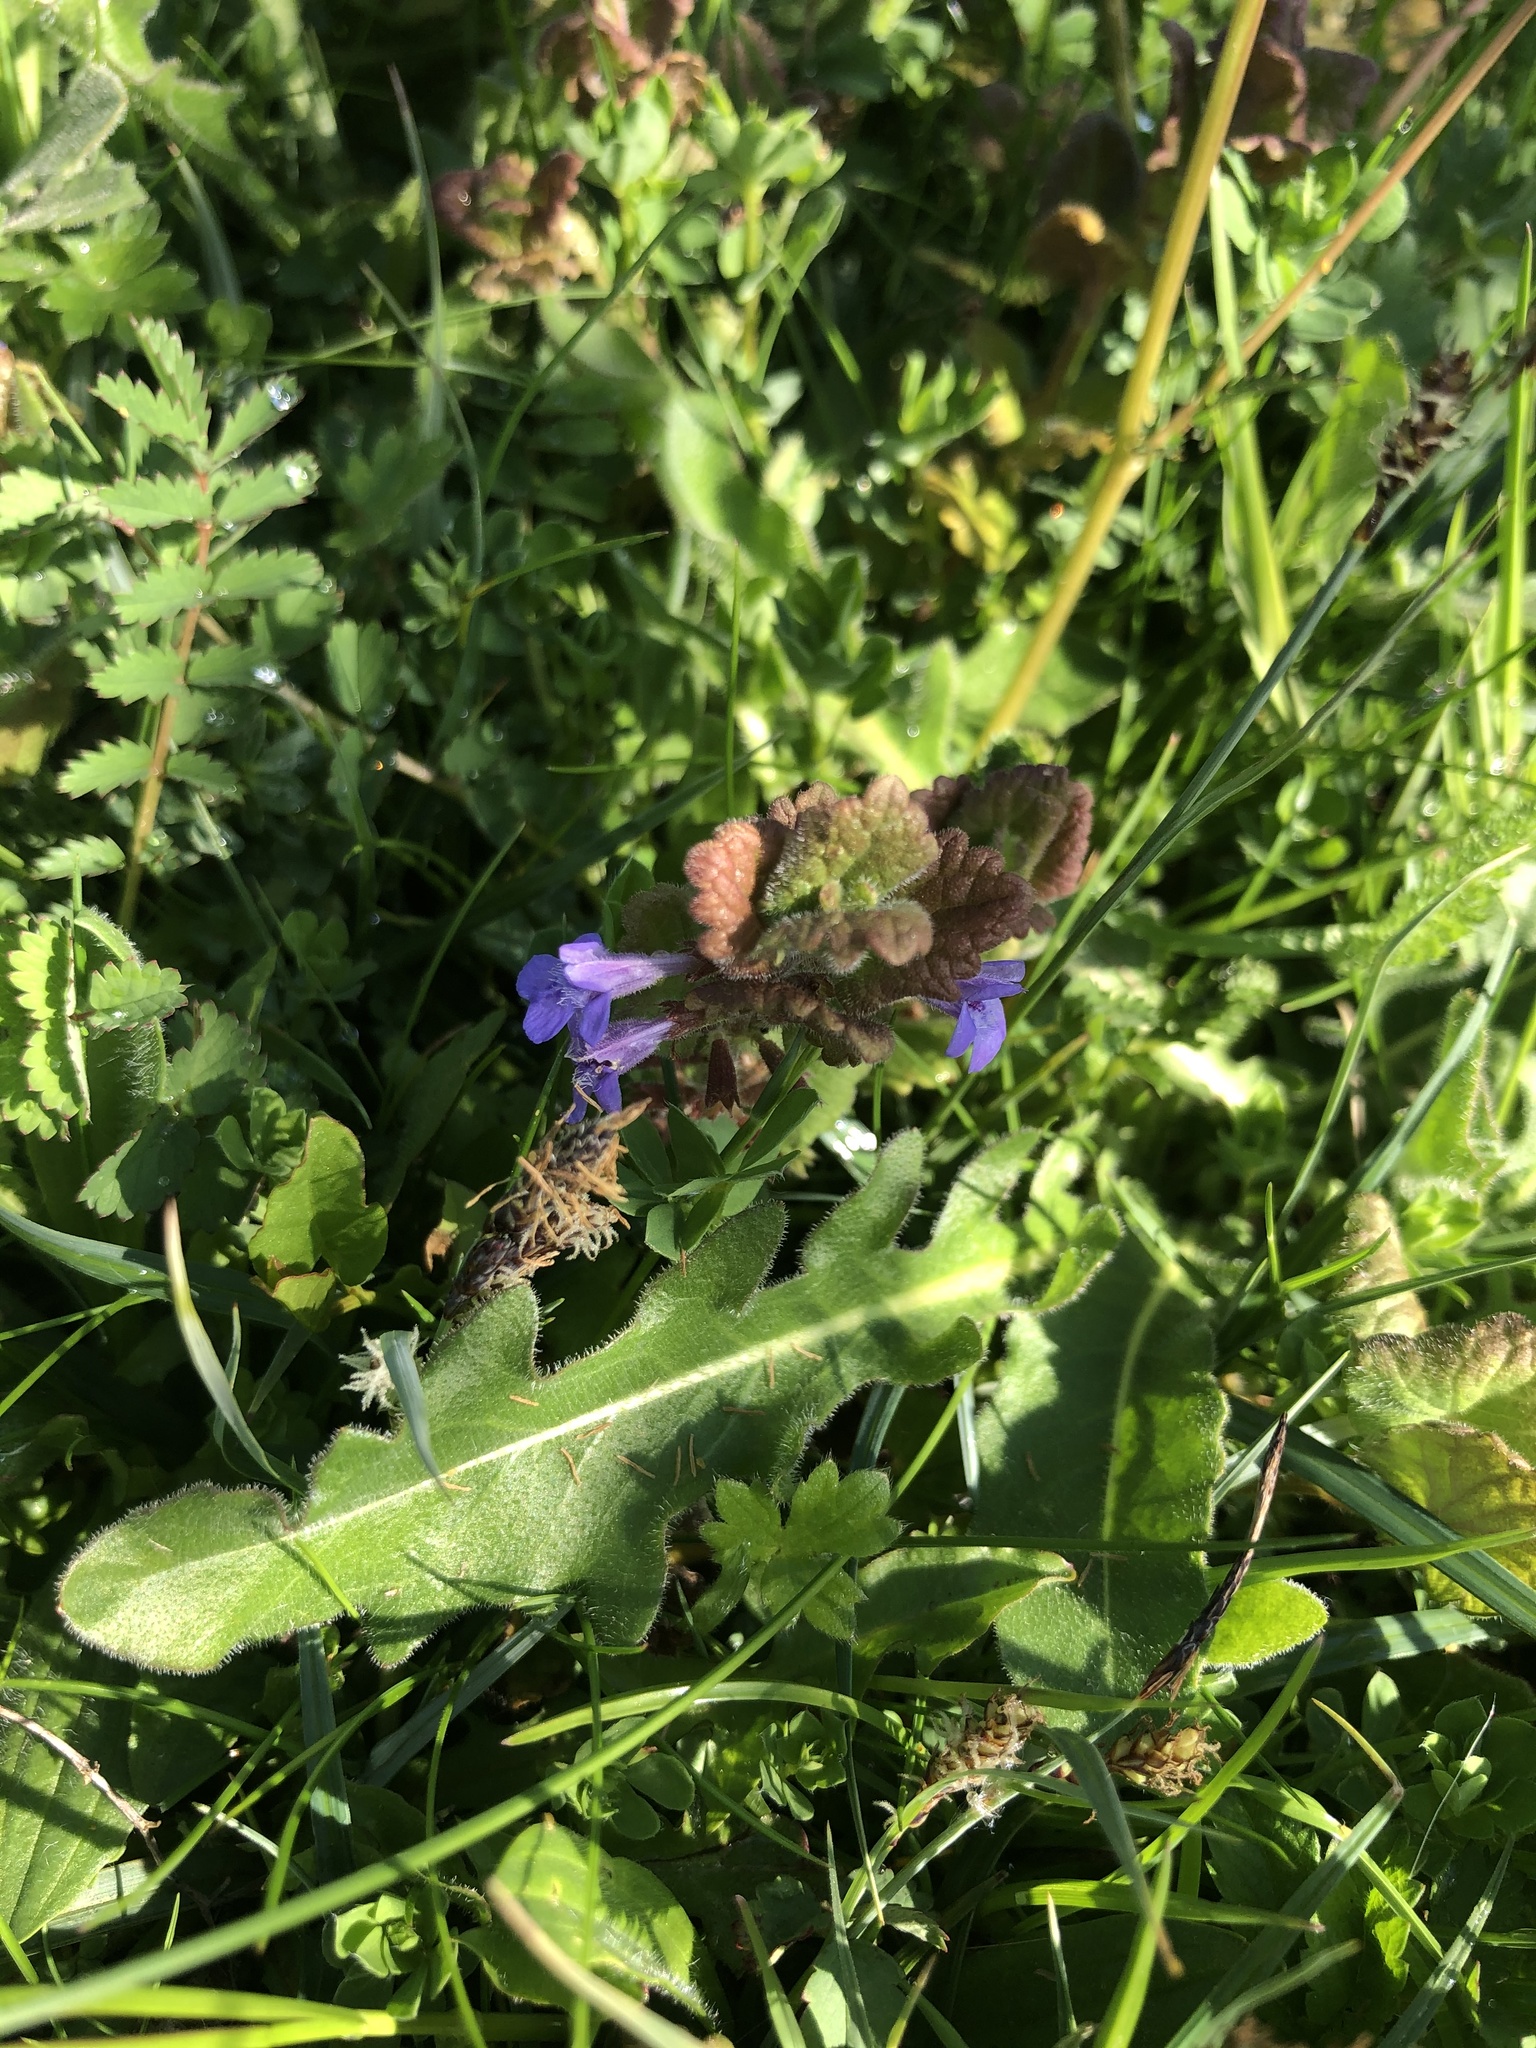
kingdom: Plantae
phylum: Tracheophyta
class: Magnoliopsida
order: Lamiales
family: Lamiaceae
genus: Glechoma
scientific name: Glechoma hederacea
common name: Ground ivy
